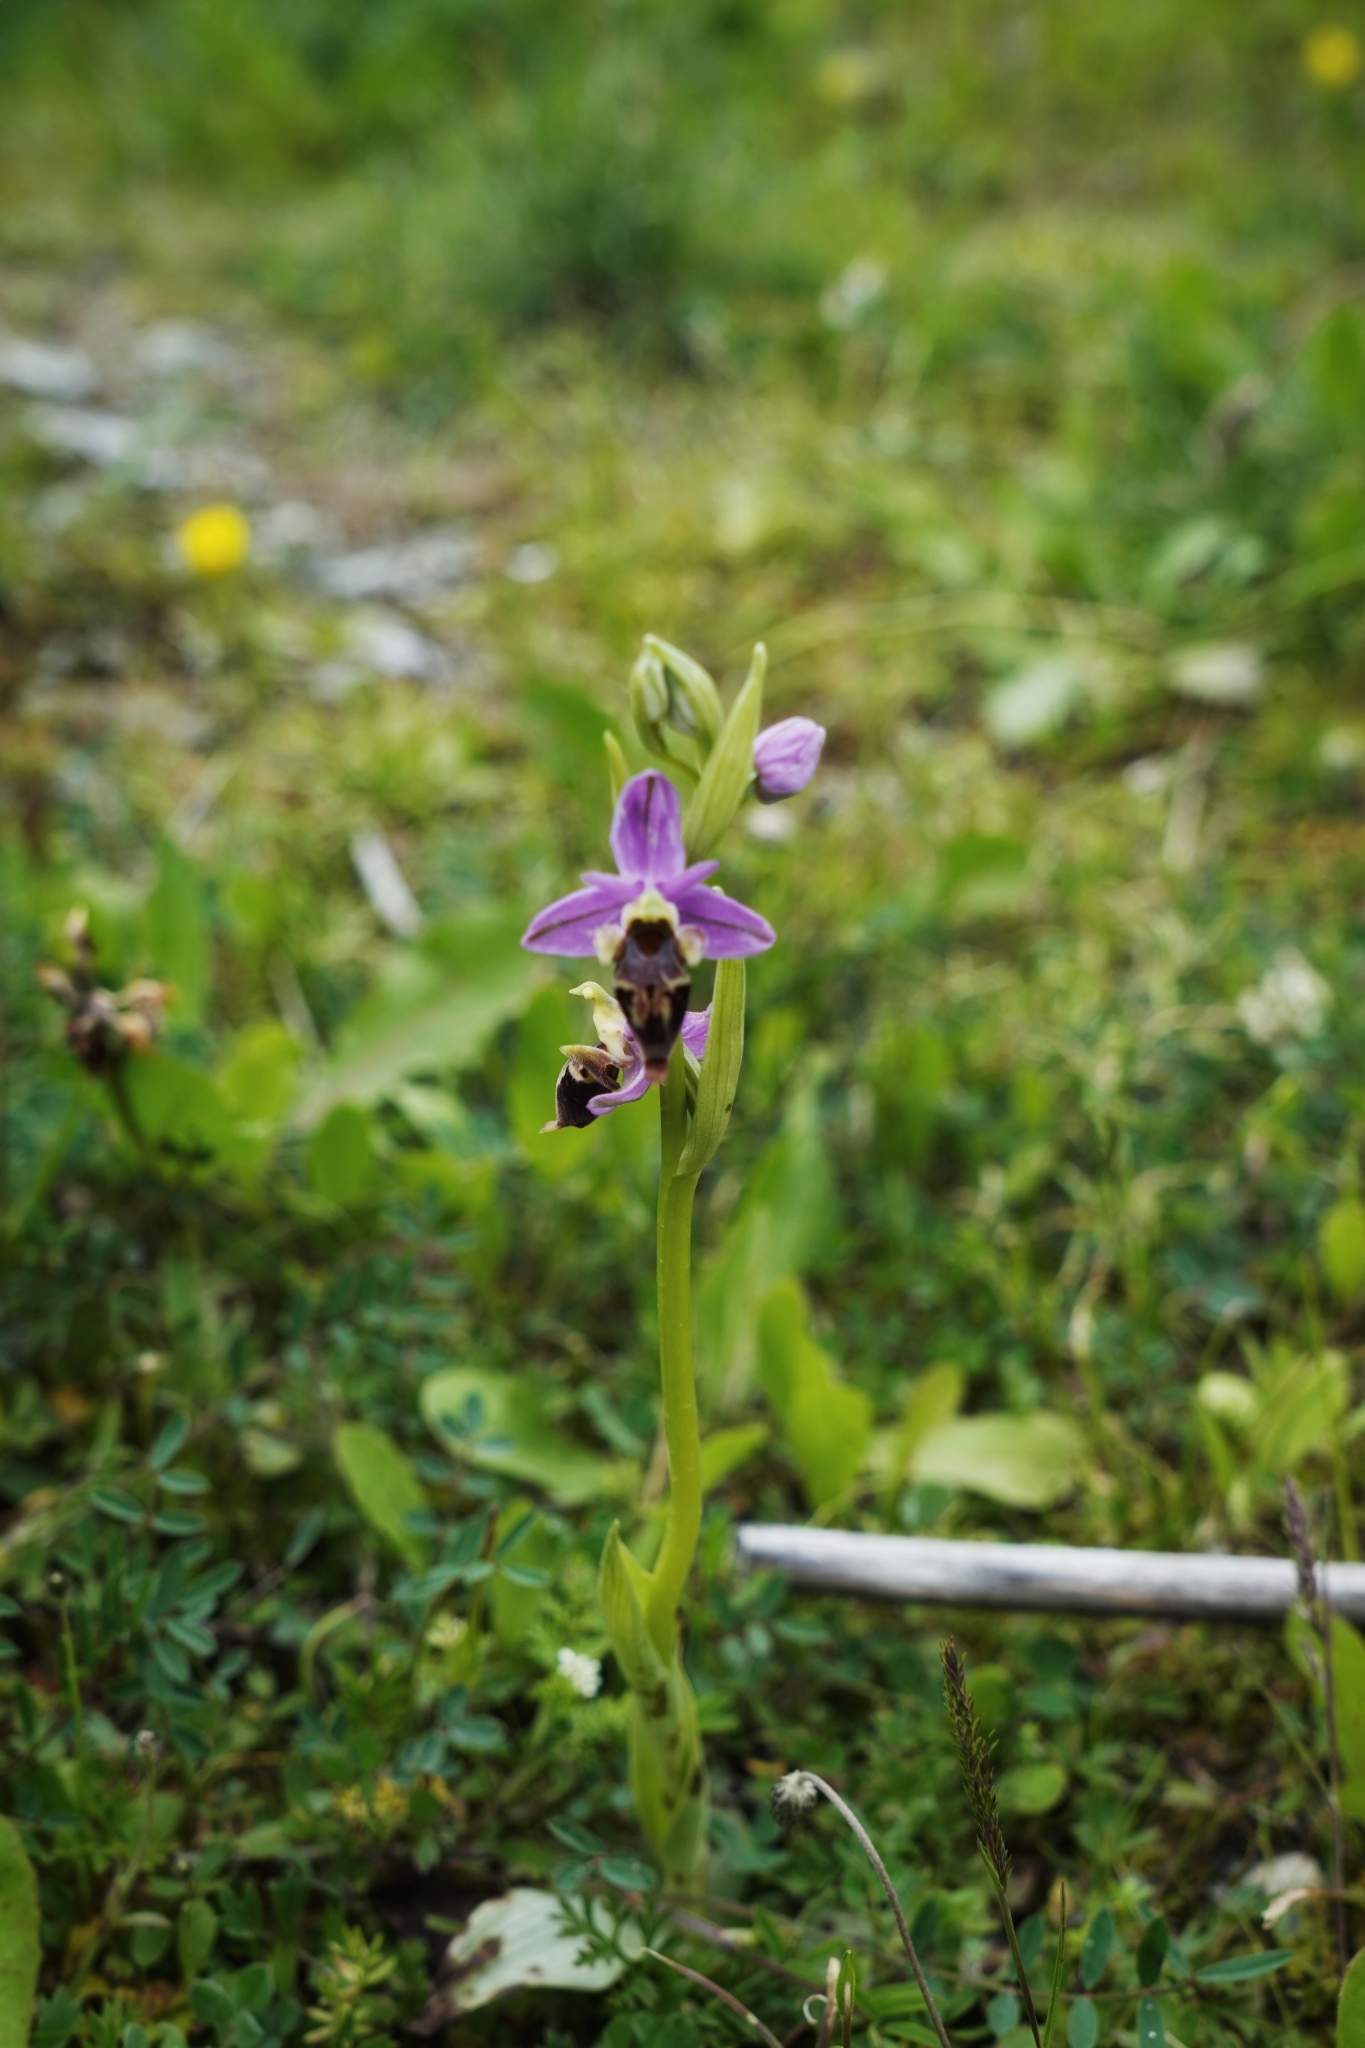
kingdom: Plantae
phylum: Tracheophyta
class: Liliopsida
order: Asparagales
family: Orchidaceae
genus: Ophrys
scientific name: Ophrys
